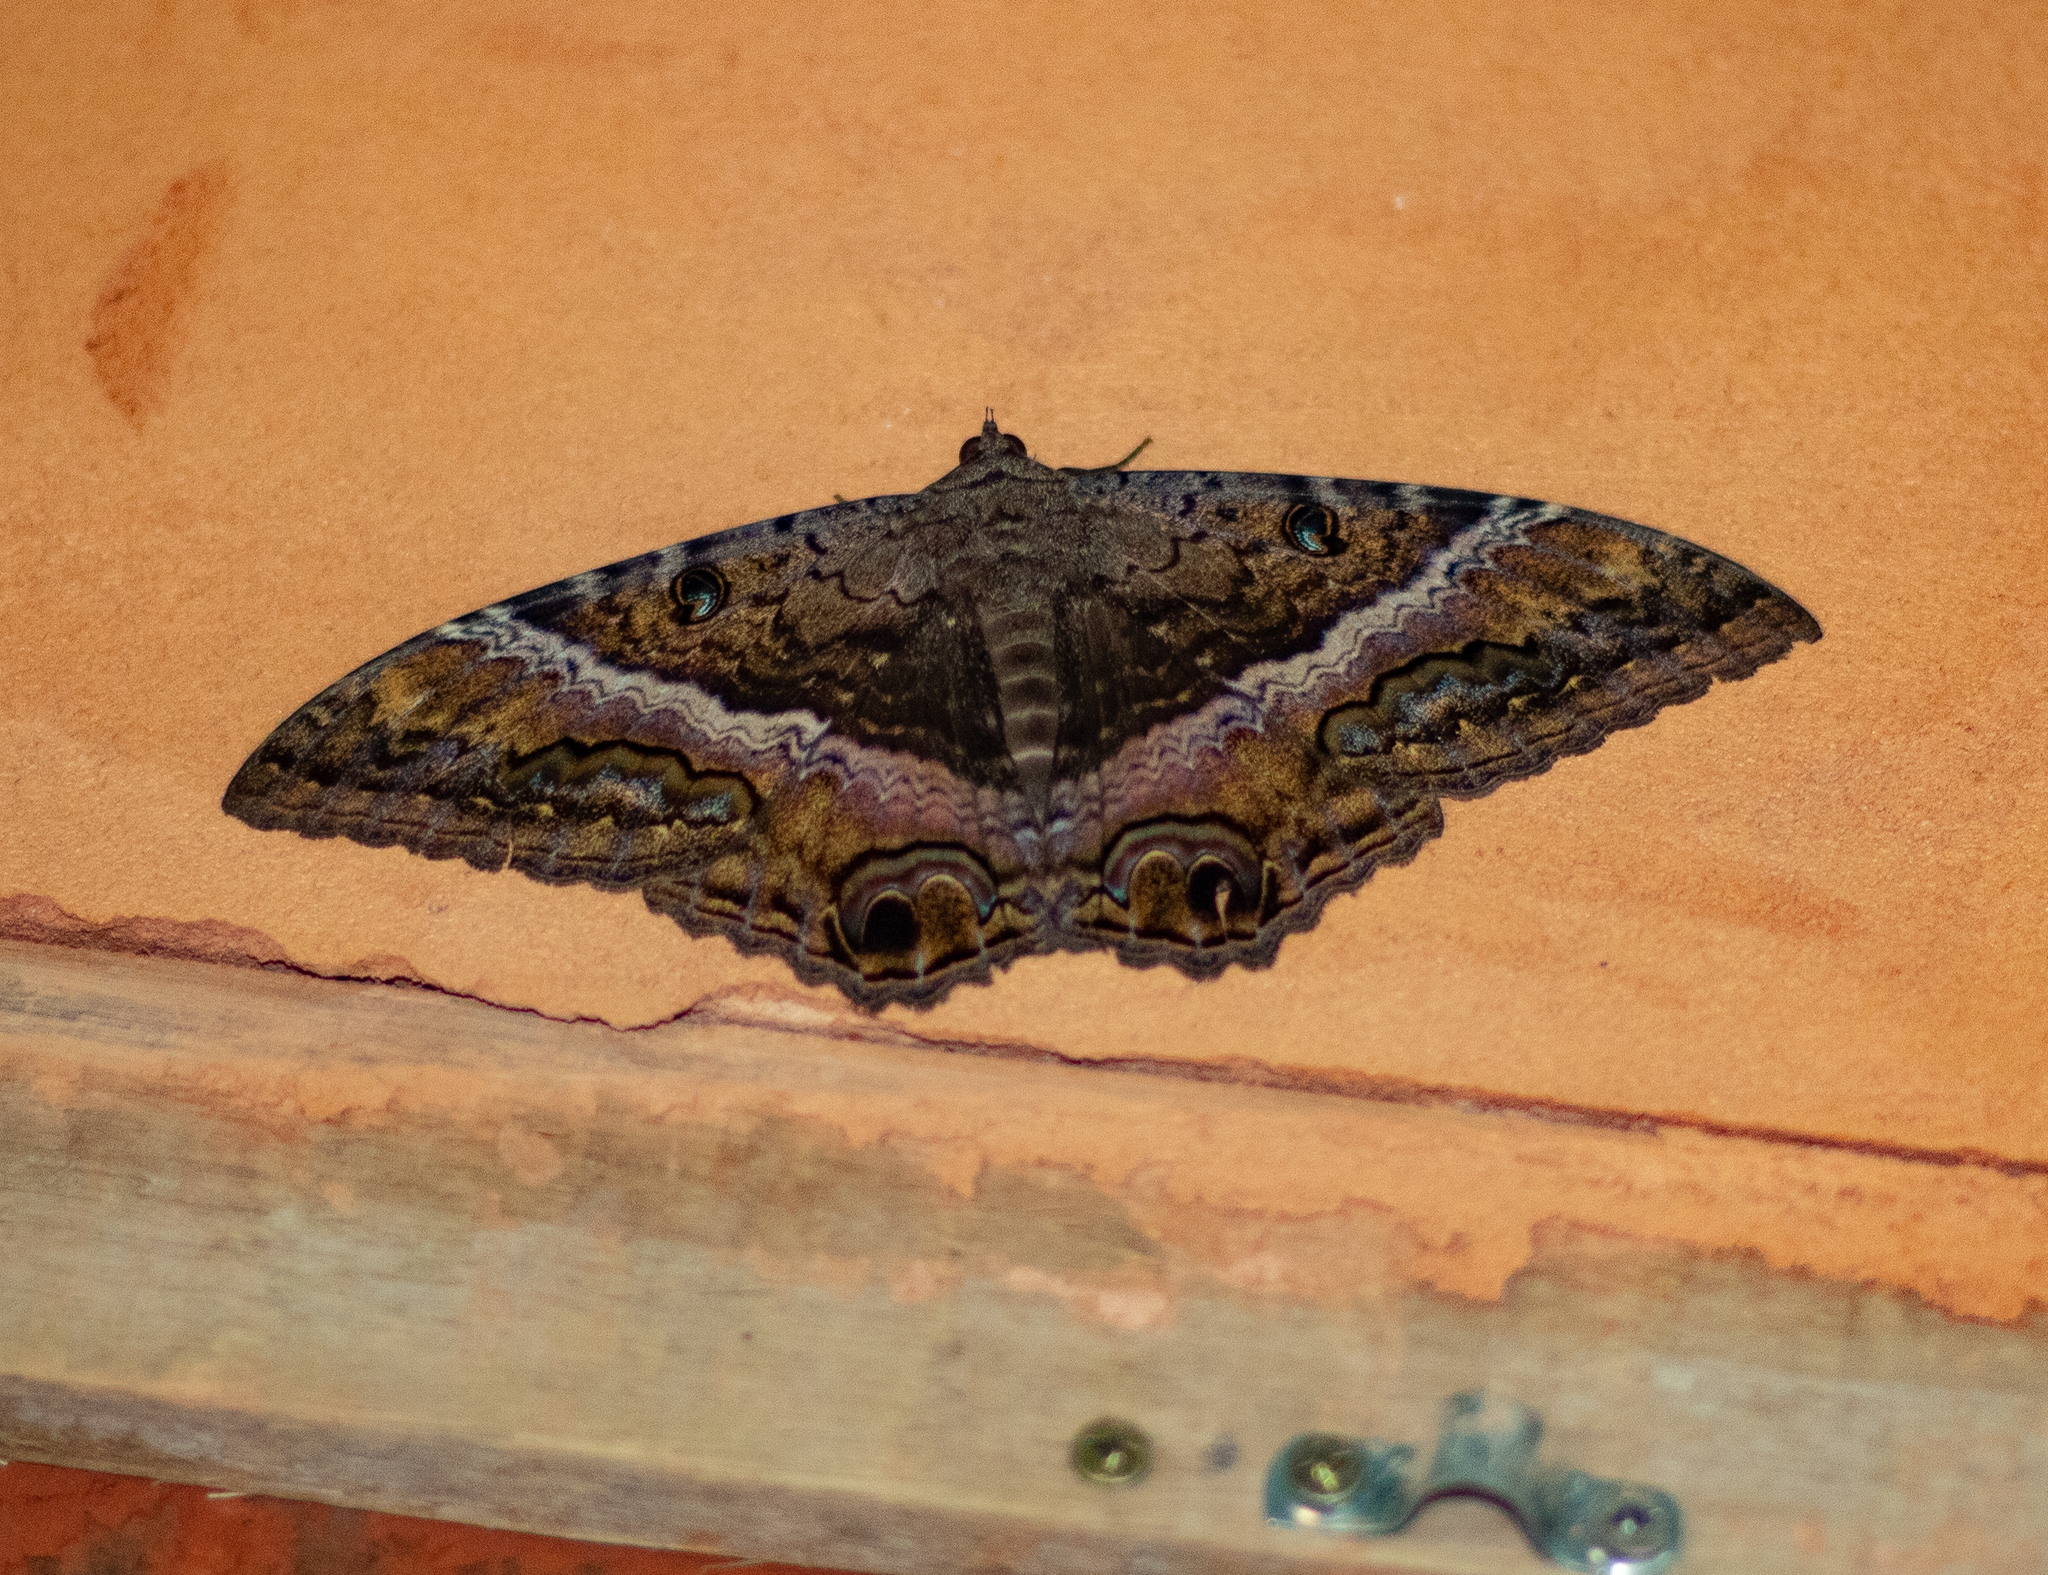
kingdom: Animalia
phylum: Arthropoda
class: Insecta
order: Lepidoptera
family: Erebidae
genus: Ascalapha
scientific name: Ascalapha odorata
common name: Black witch
